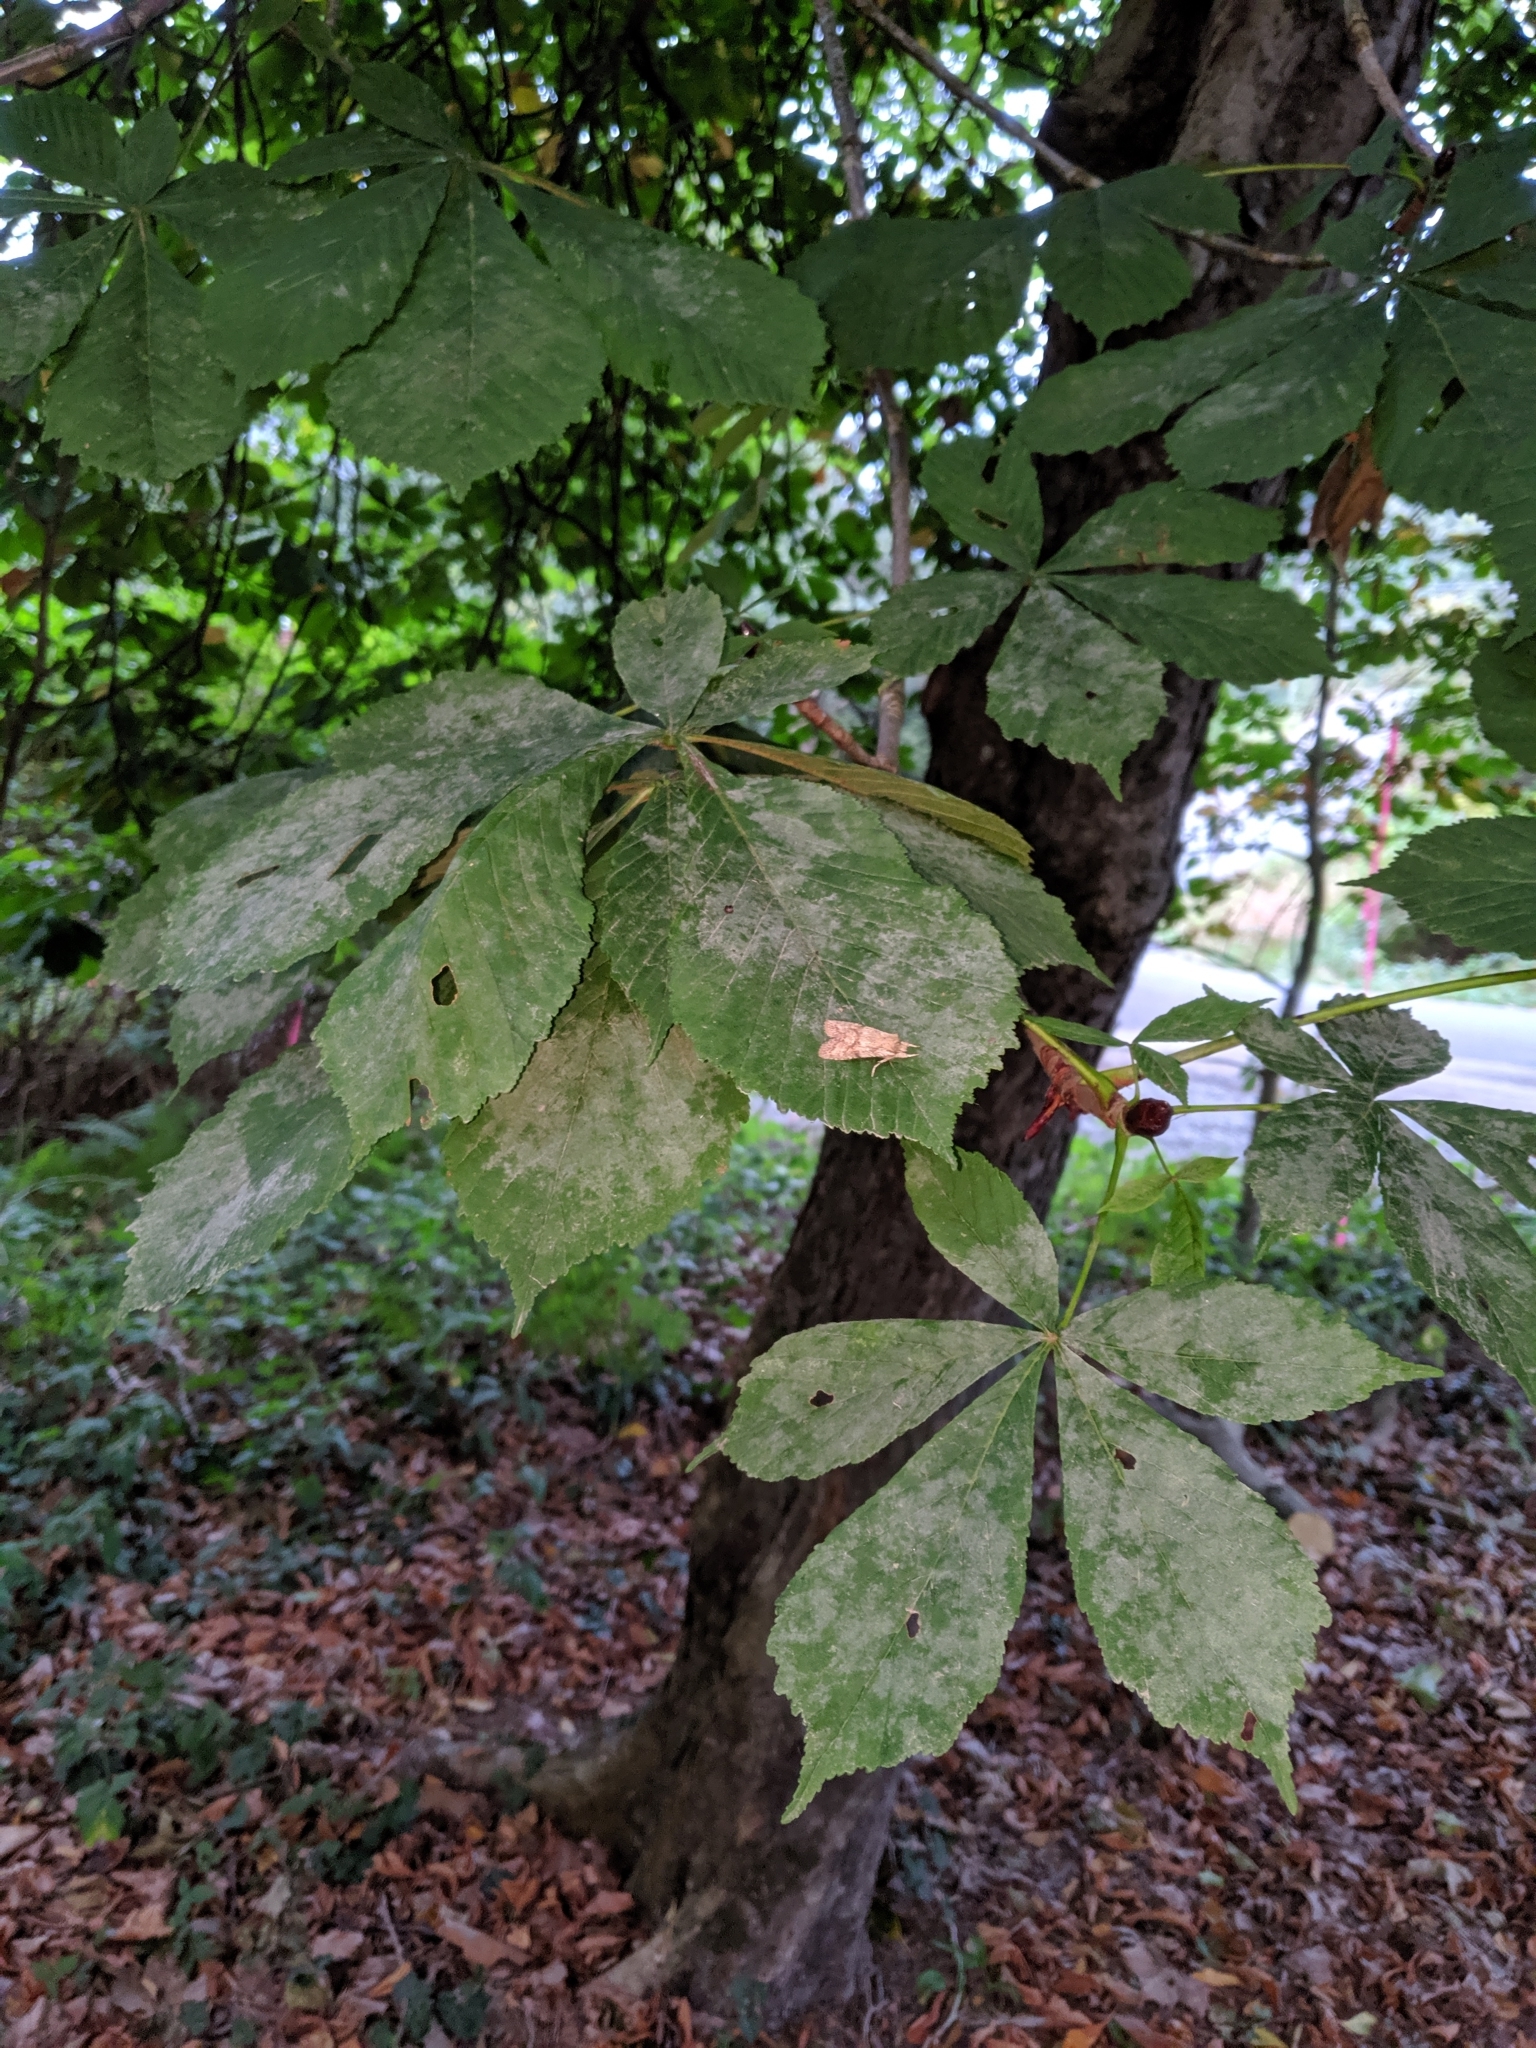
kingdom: Plantae
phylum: Tracheophyta
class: Magnoliopsida
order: Sapindales
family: Sapindaceae
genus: Aesculus
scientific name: Aesculus hippocastanum
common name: Horse-chestnut
